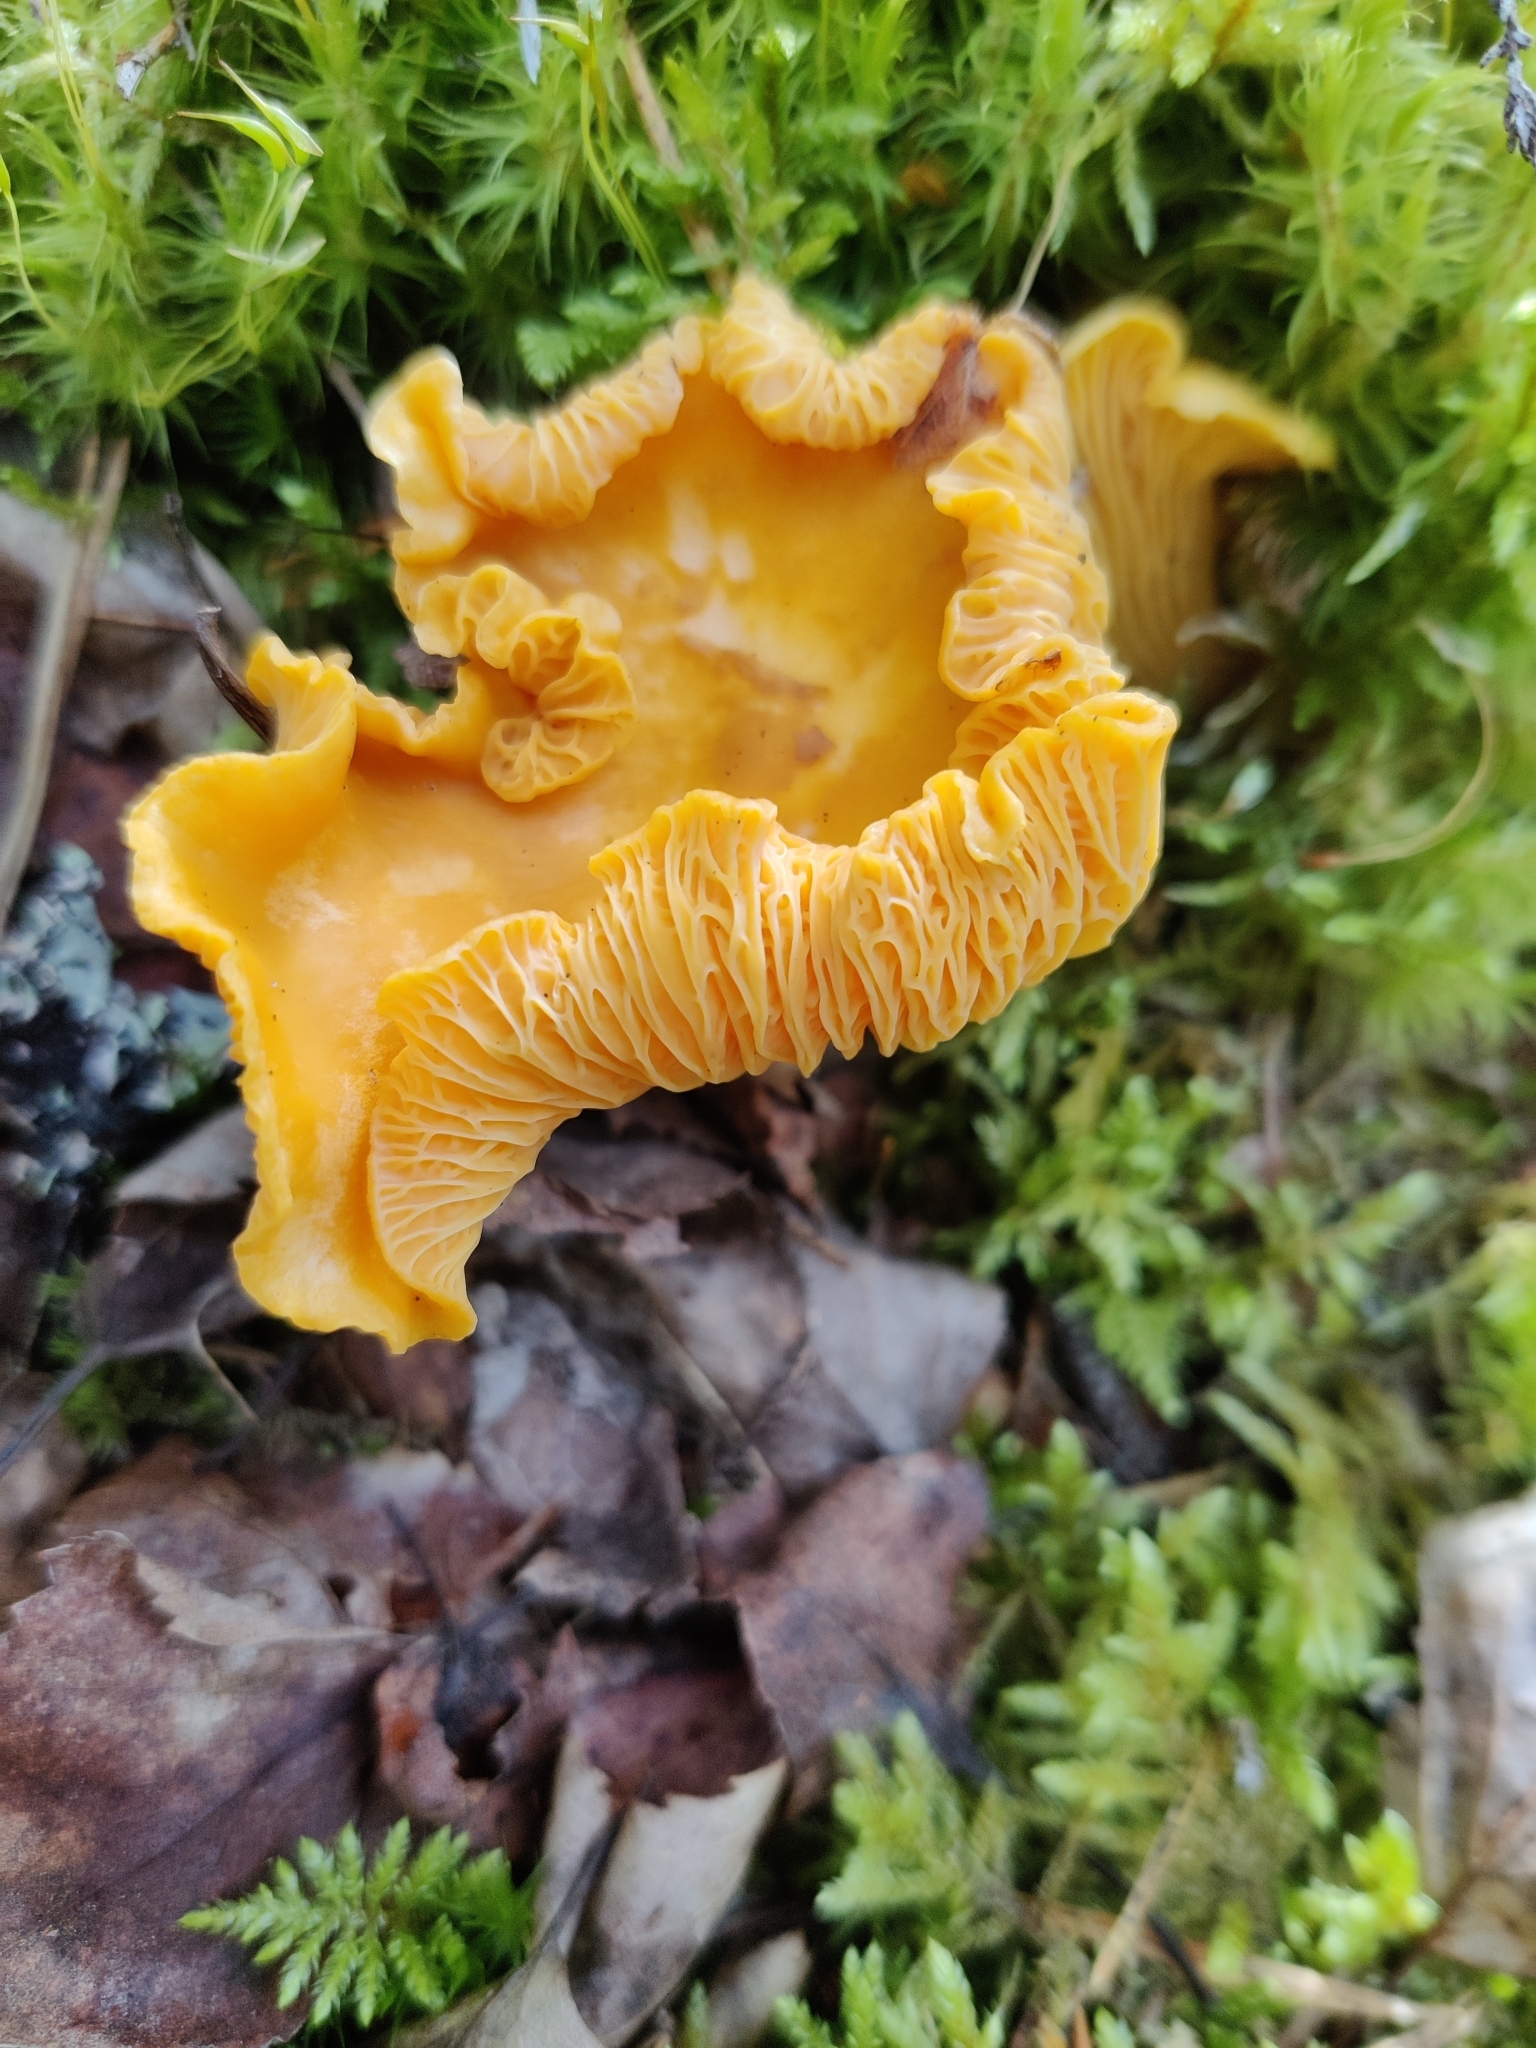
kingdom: Fungi
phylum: Basidiomycota
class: Agaricomycetes
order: Cantharellales
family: Hydnaceae
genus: Cantharellus
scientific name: Cantharellus cibarius
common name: Chanterelle
